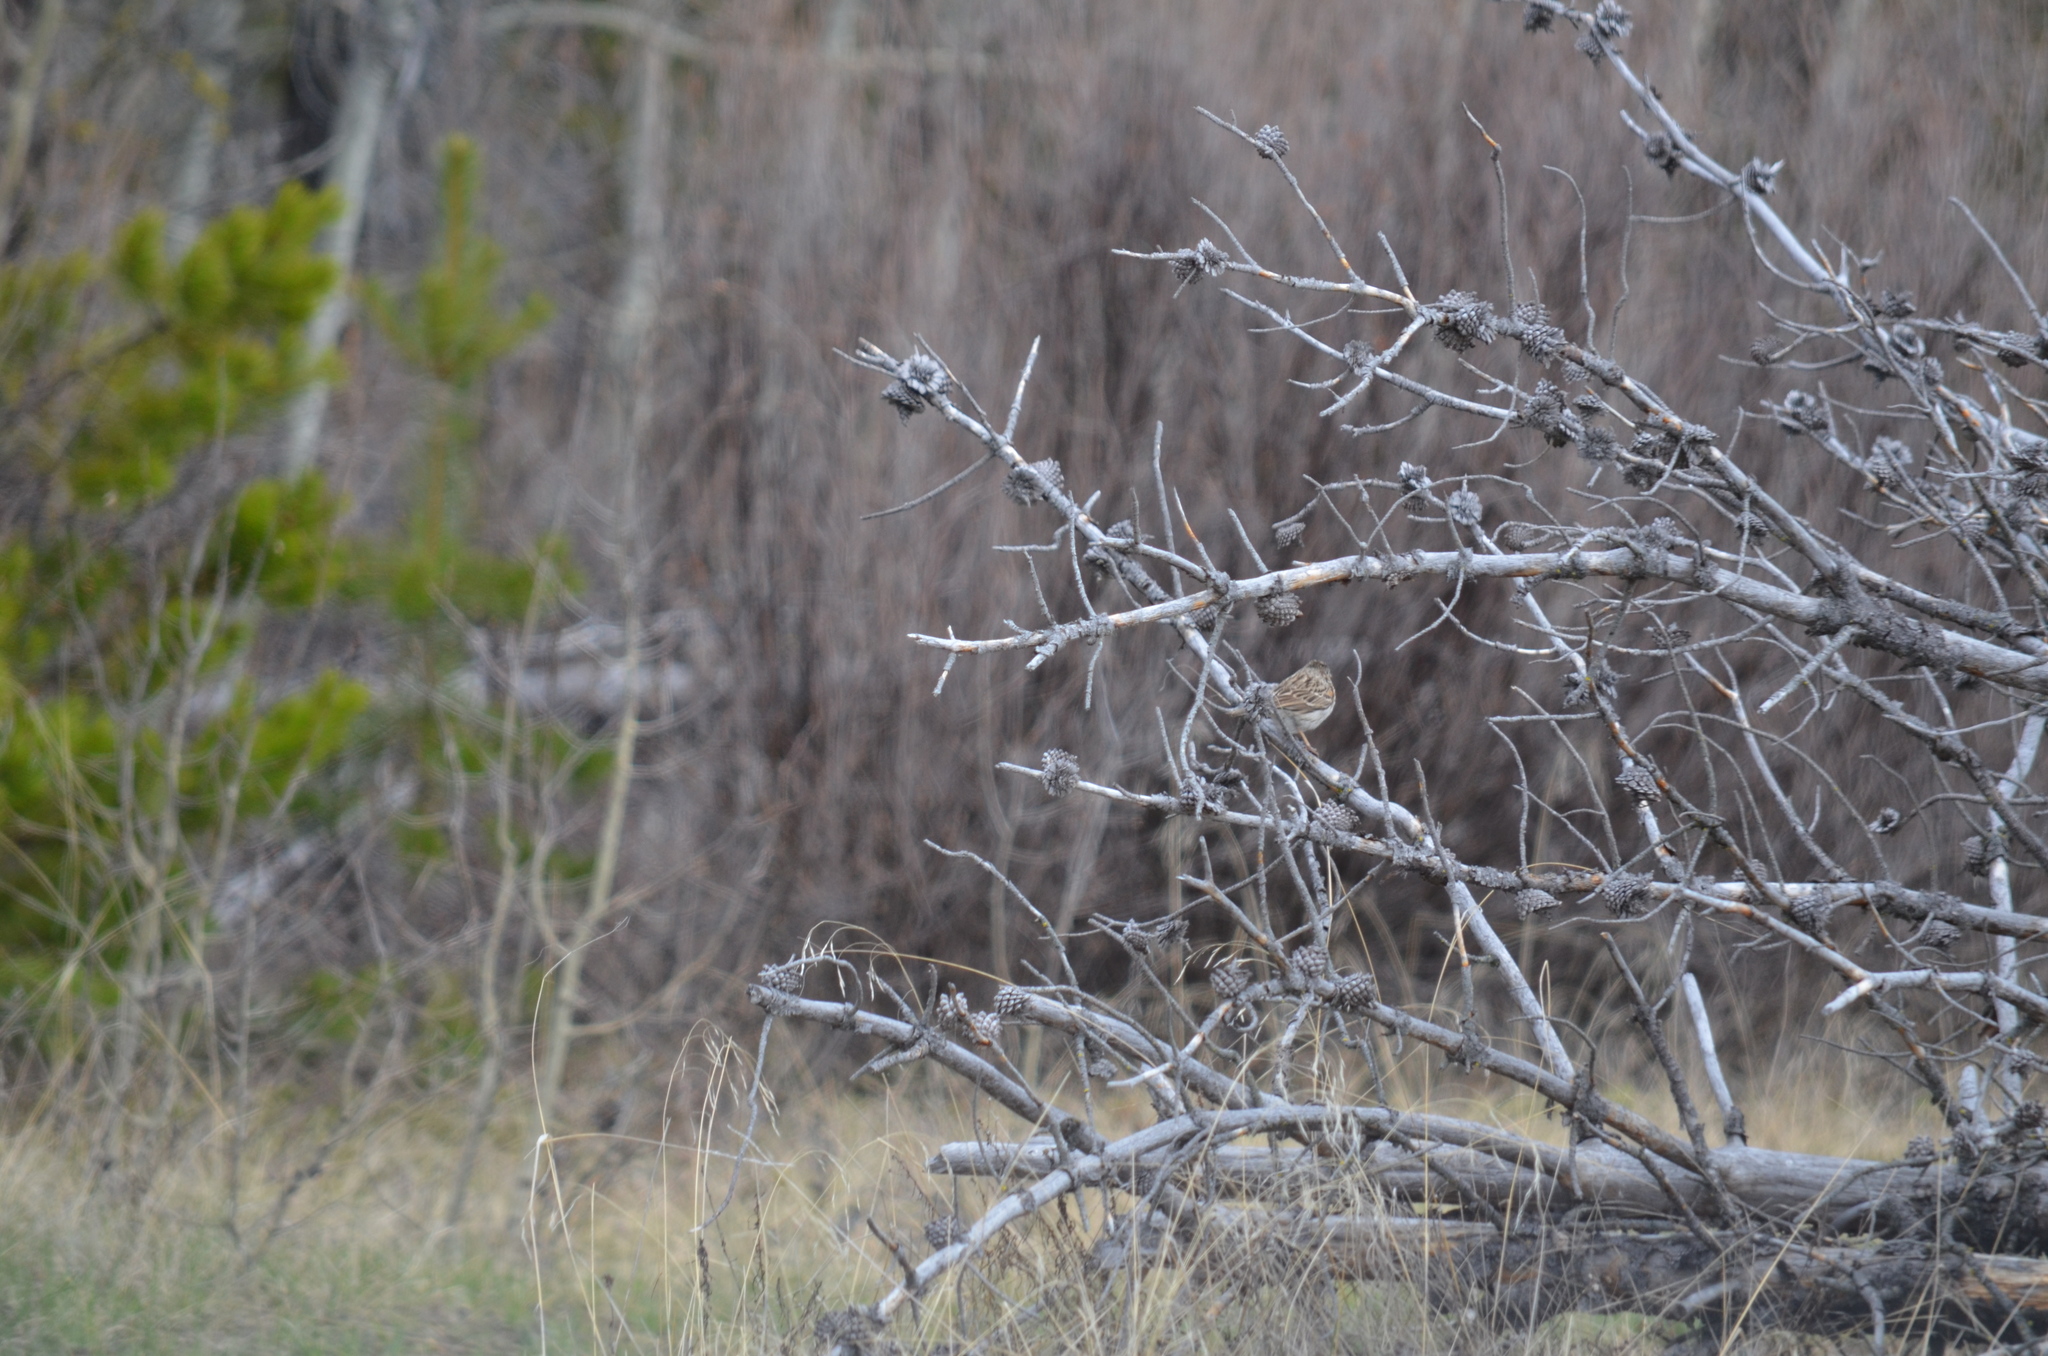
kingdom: Animalia
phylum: Chordata
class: Aves
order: Passeriformes
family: Passerellidae
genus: Pooecetes
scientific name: Pooecetes gramineus
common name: Vesper sparrow
